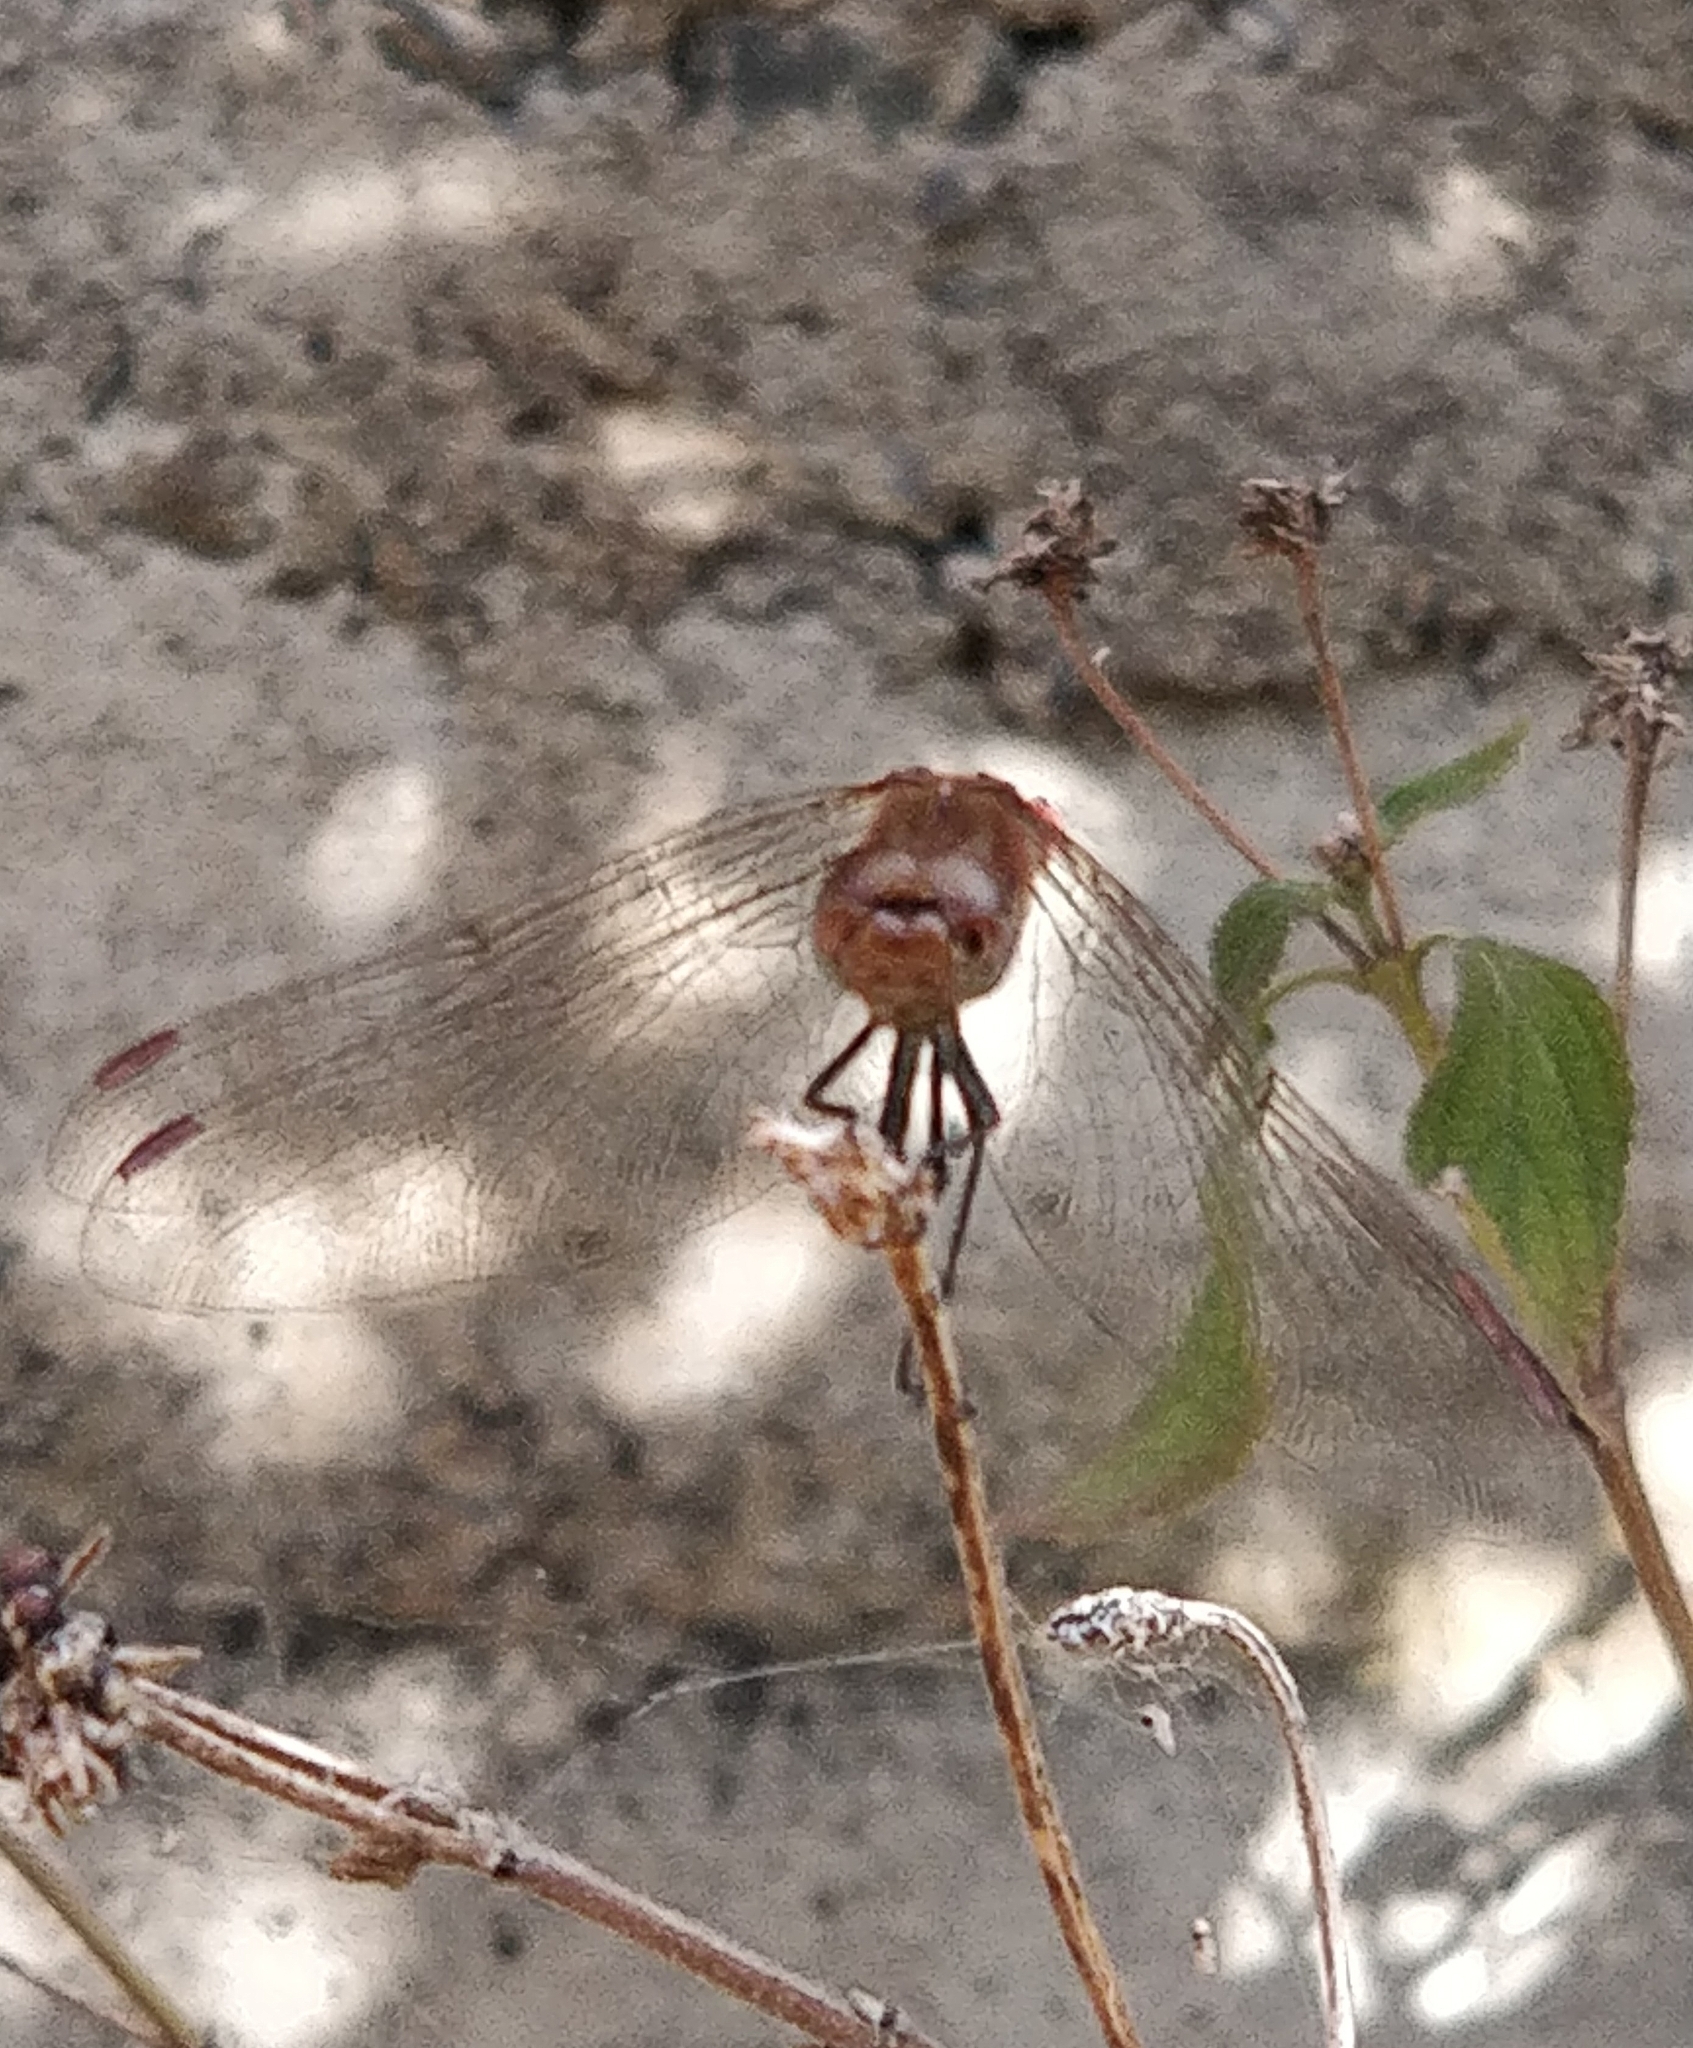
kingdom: Animalia
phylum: Arthropoda
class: Insecta
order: Odonata
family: Libellulidae
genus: Sympetrum
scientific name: Sympetrum nigrifemur
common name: Island darter
